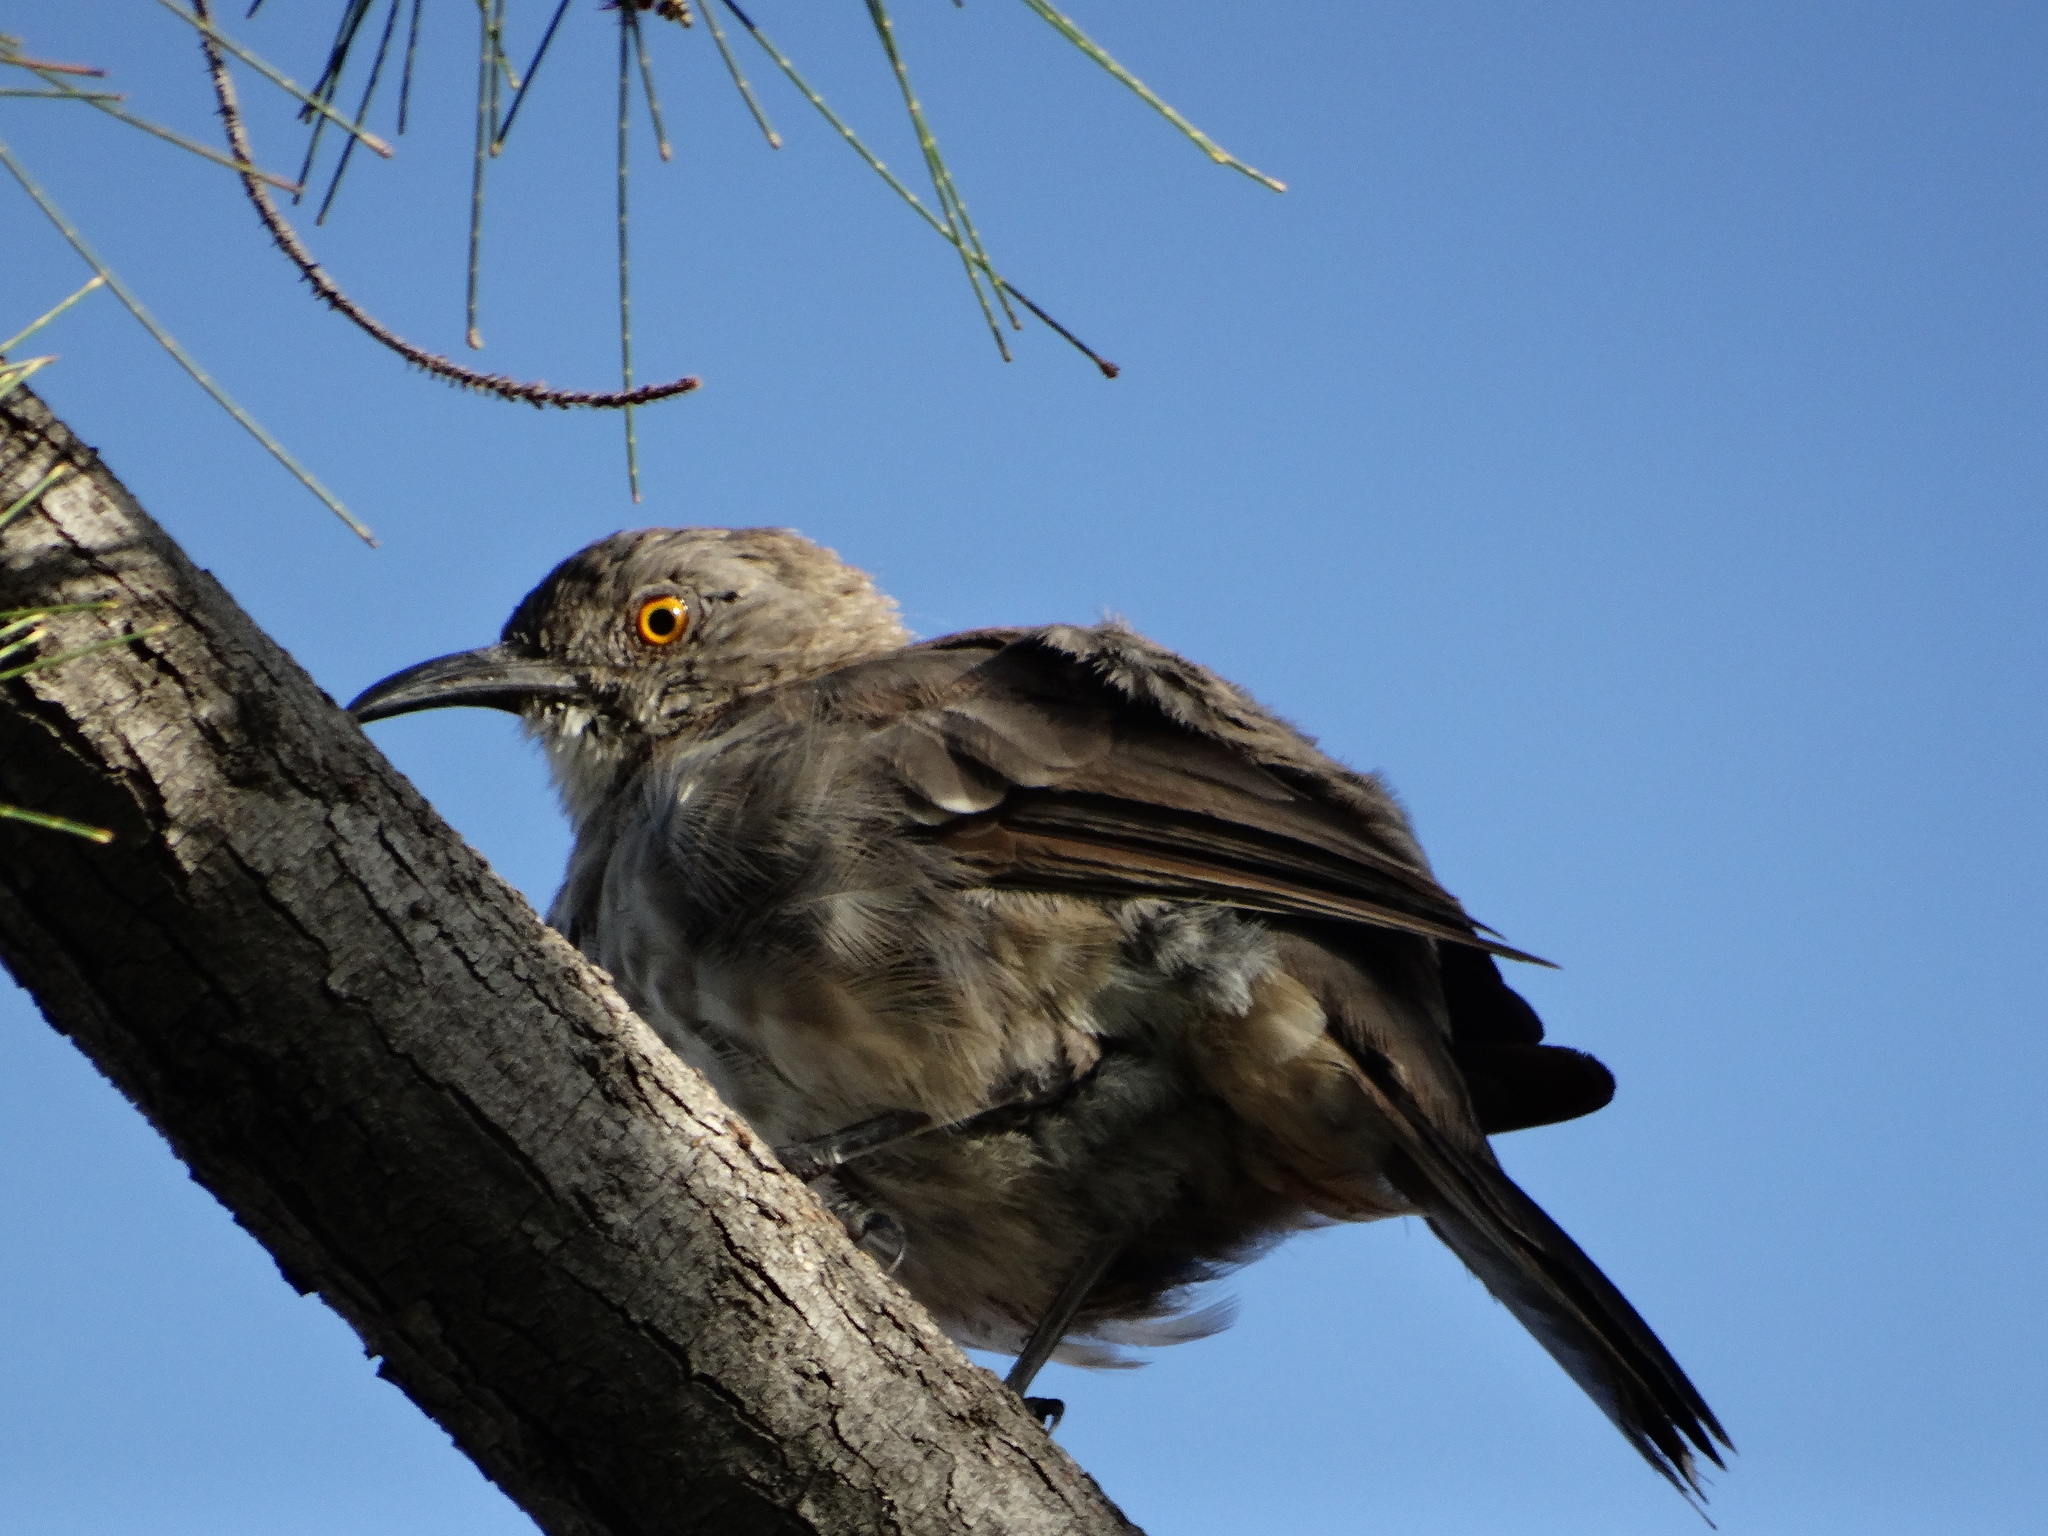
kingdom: Animalia
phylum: Chordata
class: Aves
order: Passeriformes
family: Mimidae
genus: Toxostoma
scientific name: Toxostoma curvirostre
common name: Curve-billed thrasher
